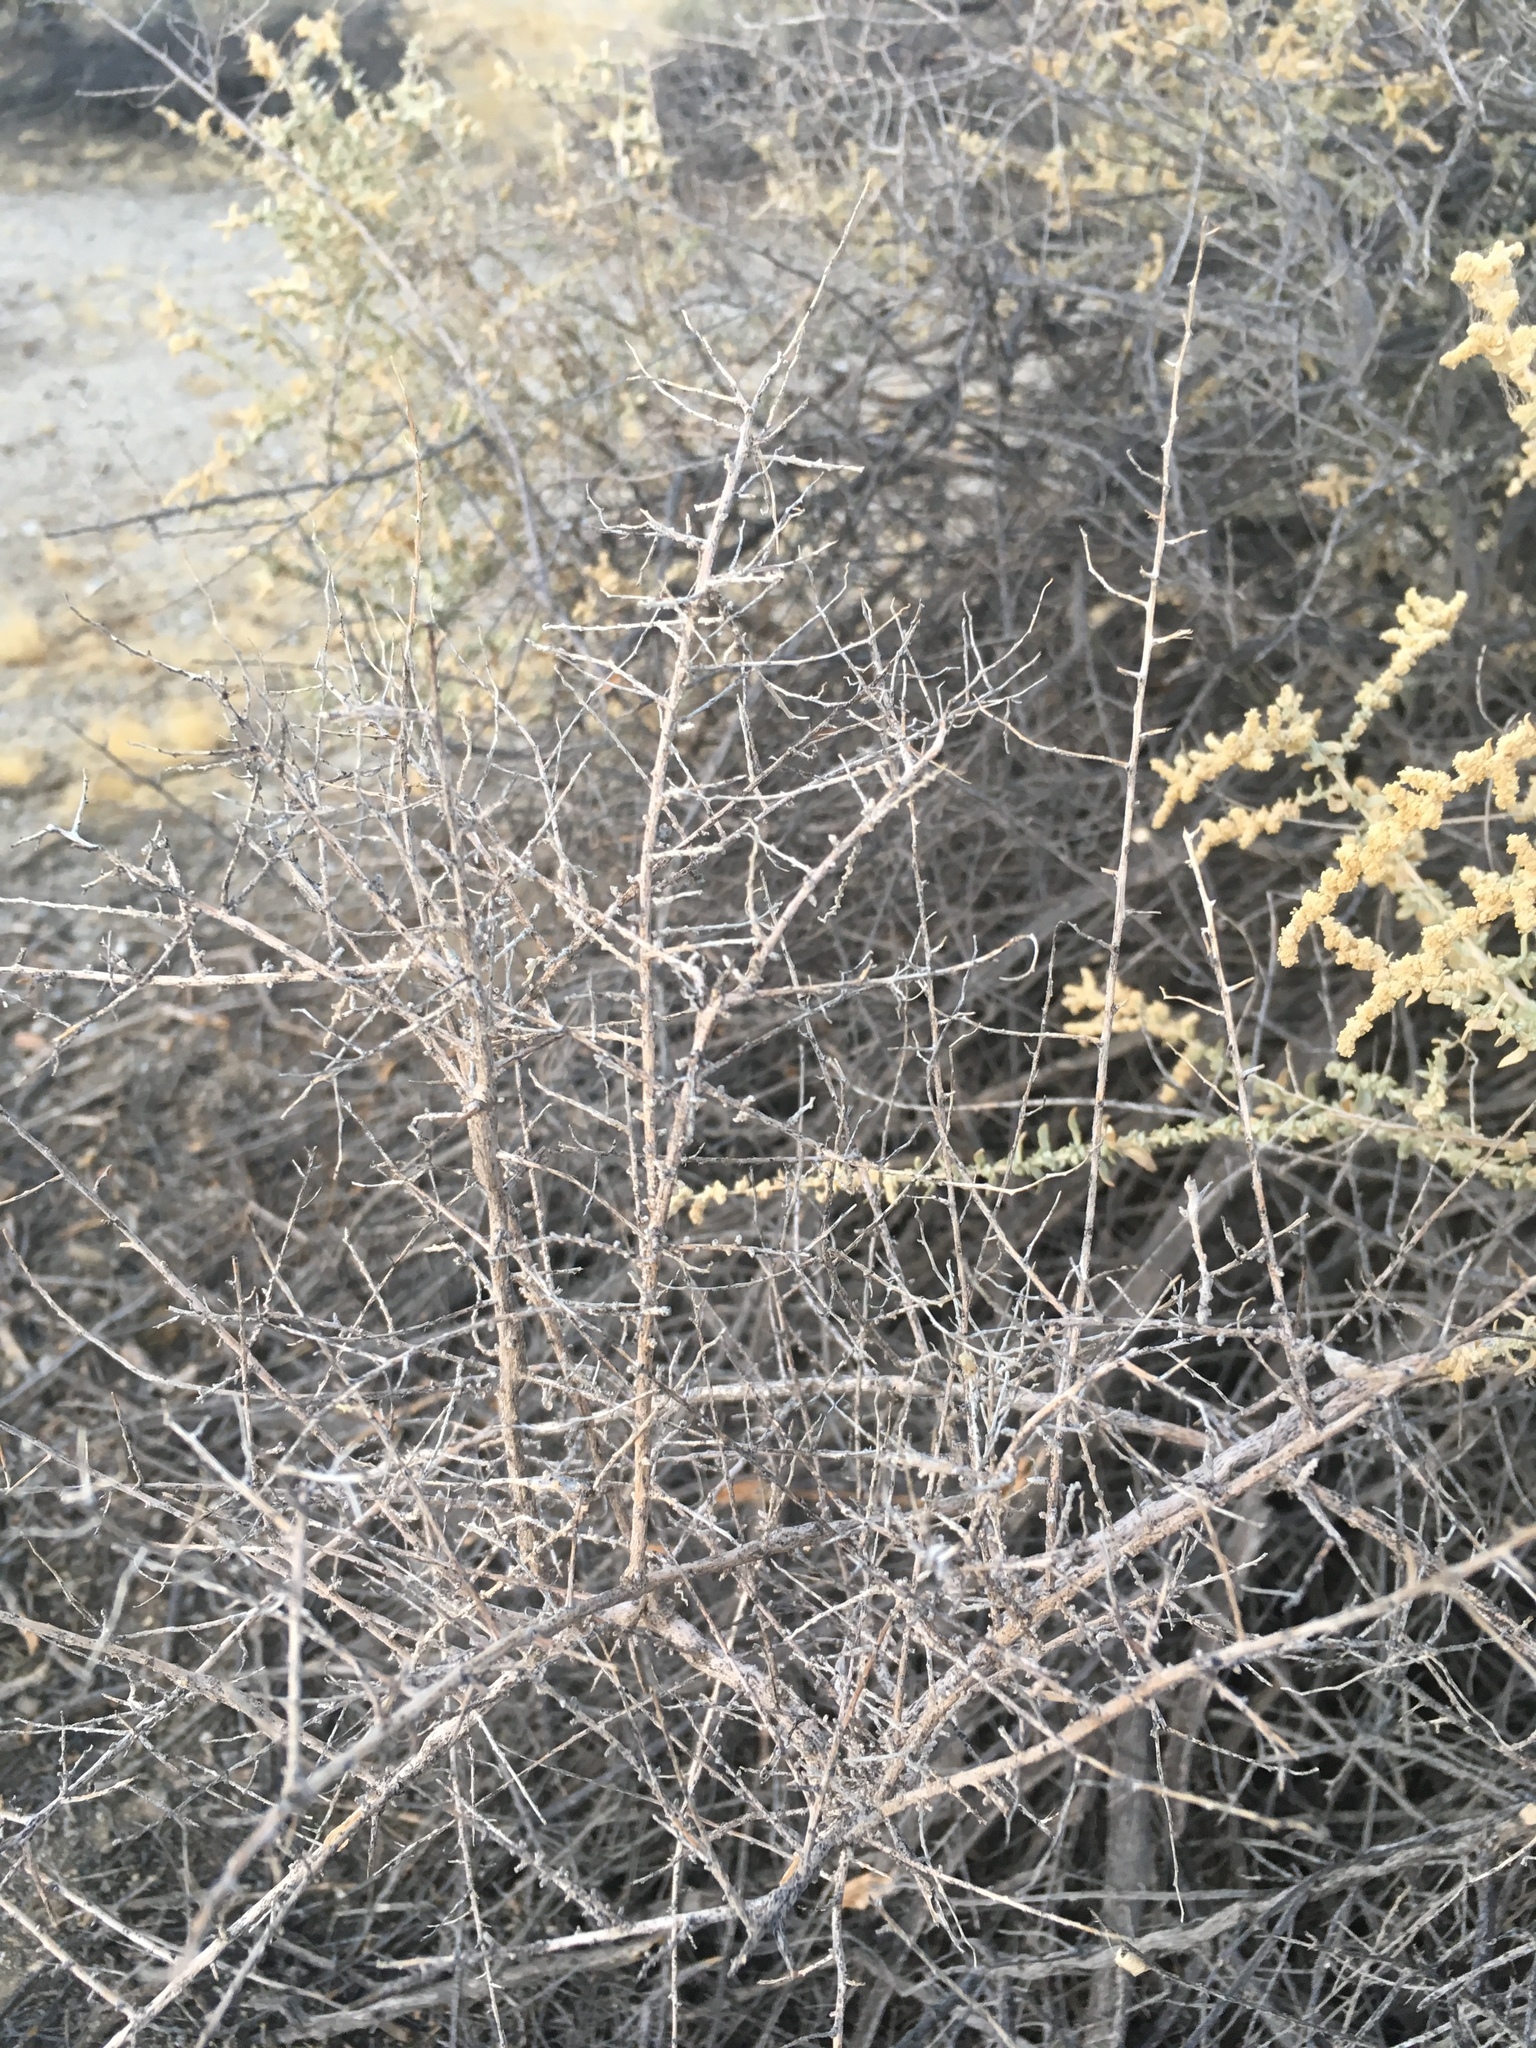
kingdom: Plantae
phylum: Tracheophyta
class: Magnoliopsida
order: Caryophyllales
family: Amaranthaceae
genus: Atriplex
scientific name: Atriplex polycarpa
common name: Desert saltbush
